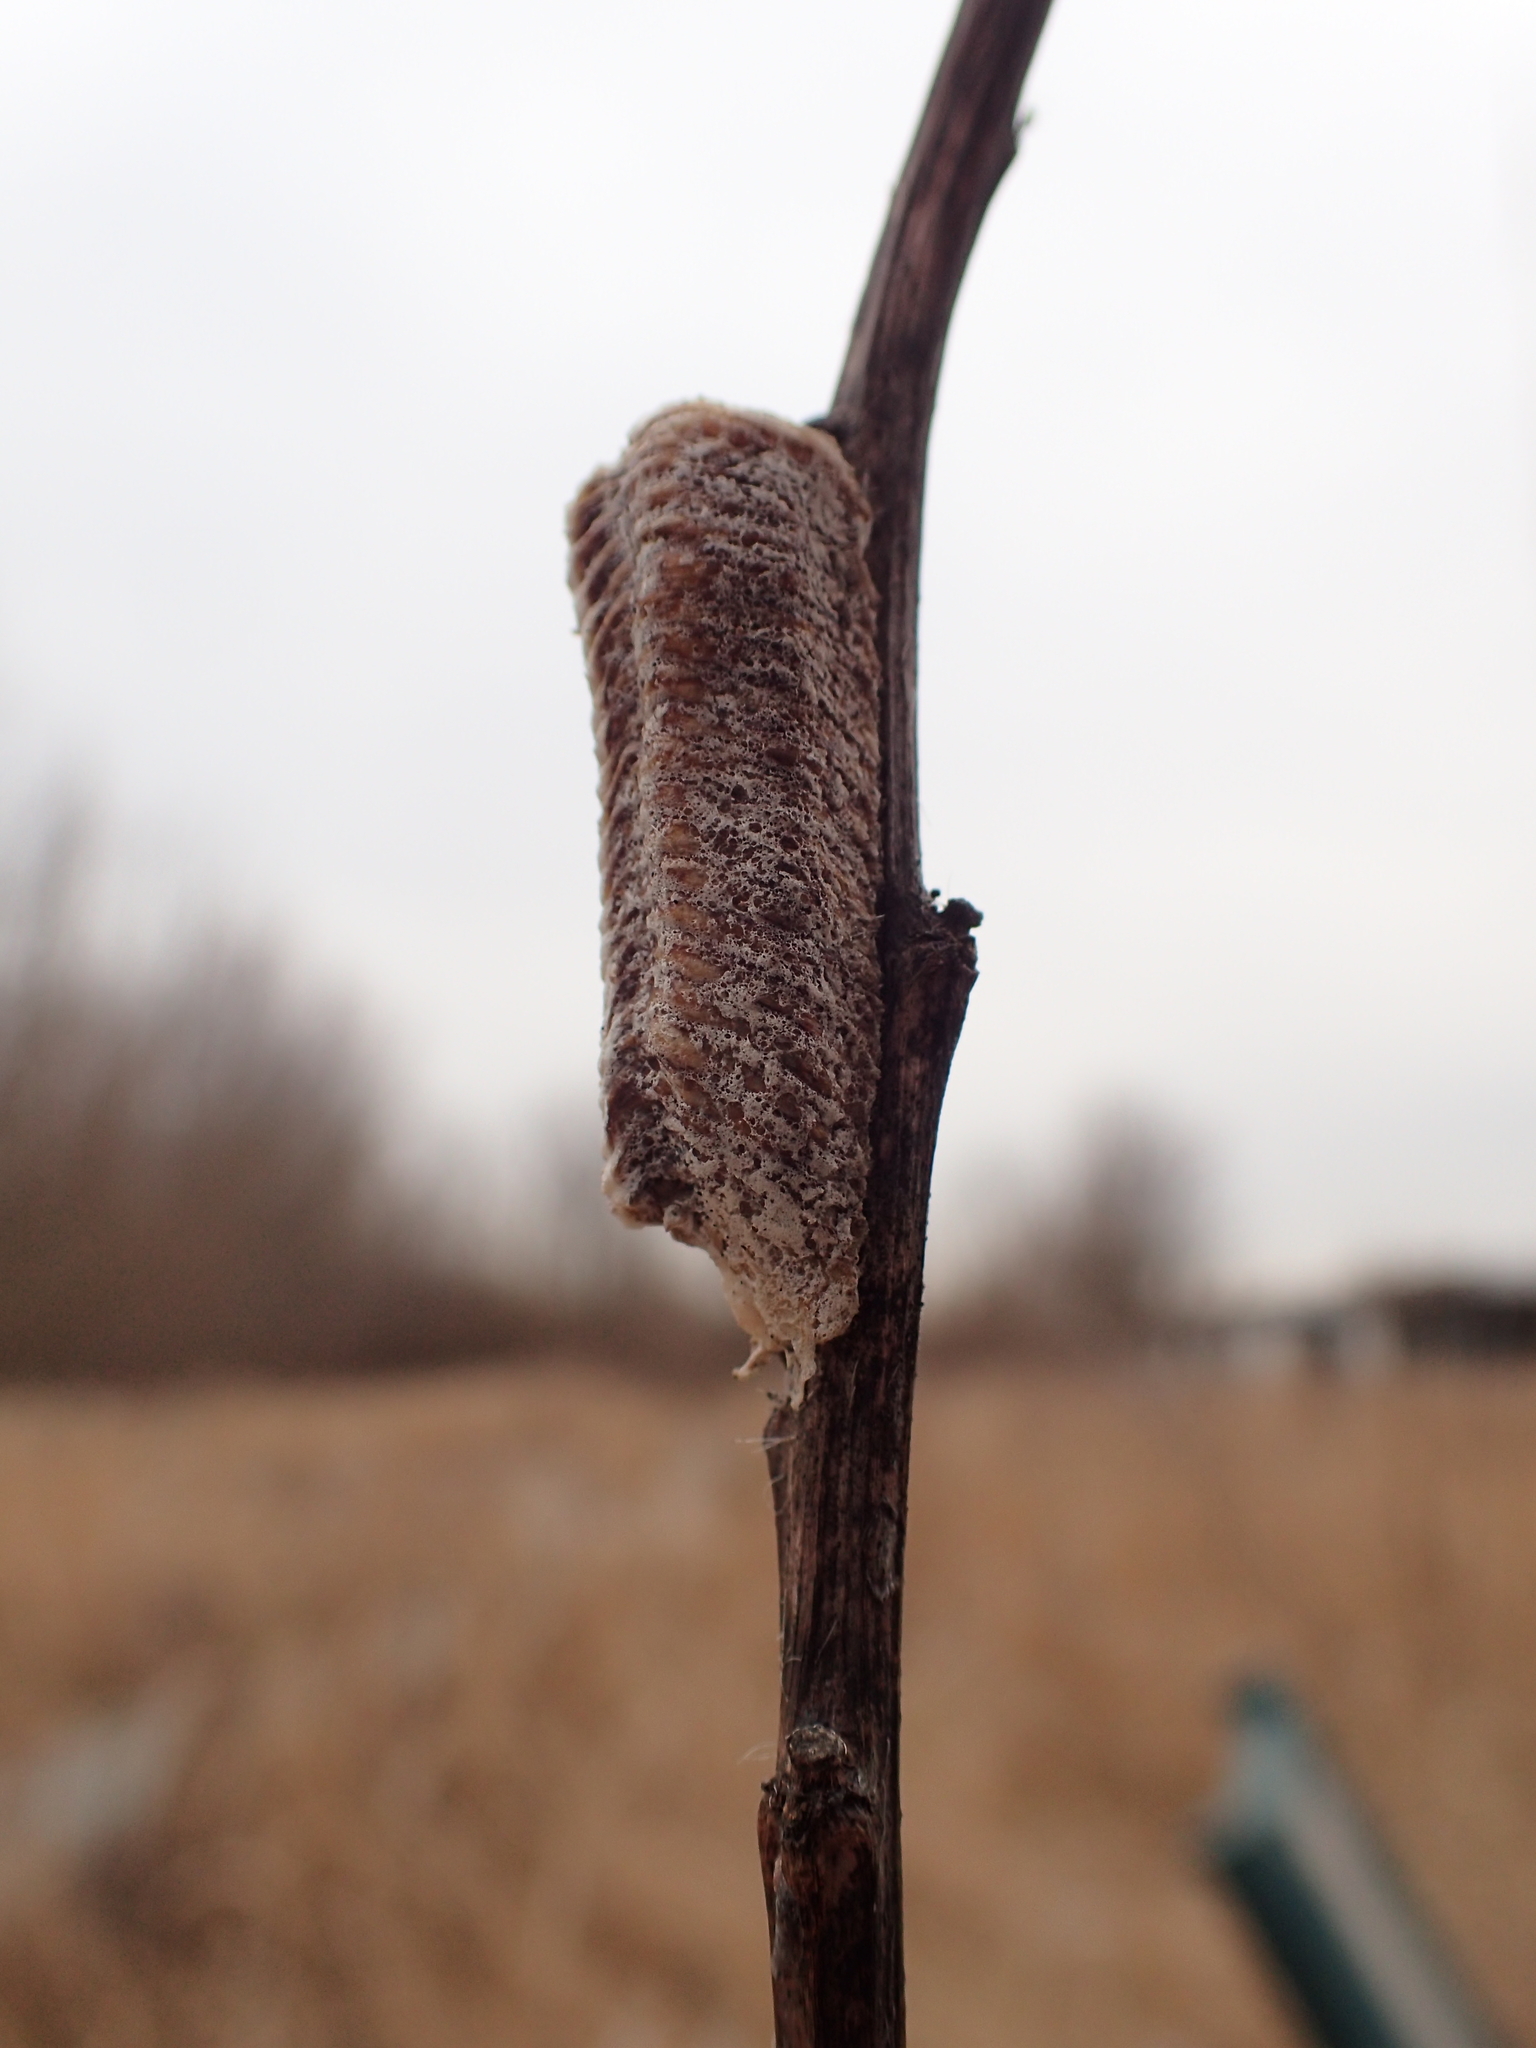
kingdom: Animalia
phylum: Arthropoda
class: Insecta
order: Mantodea
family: Mantidae
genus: Stagmomantis
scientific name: Stagmomantis carolina
